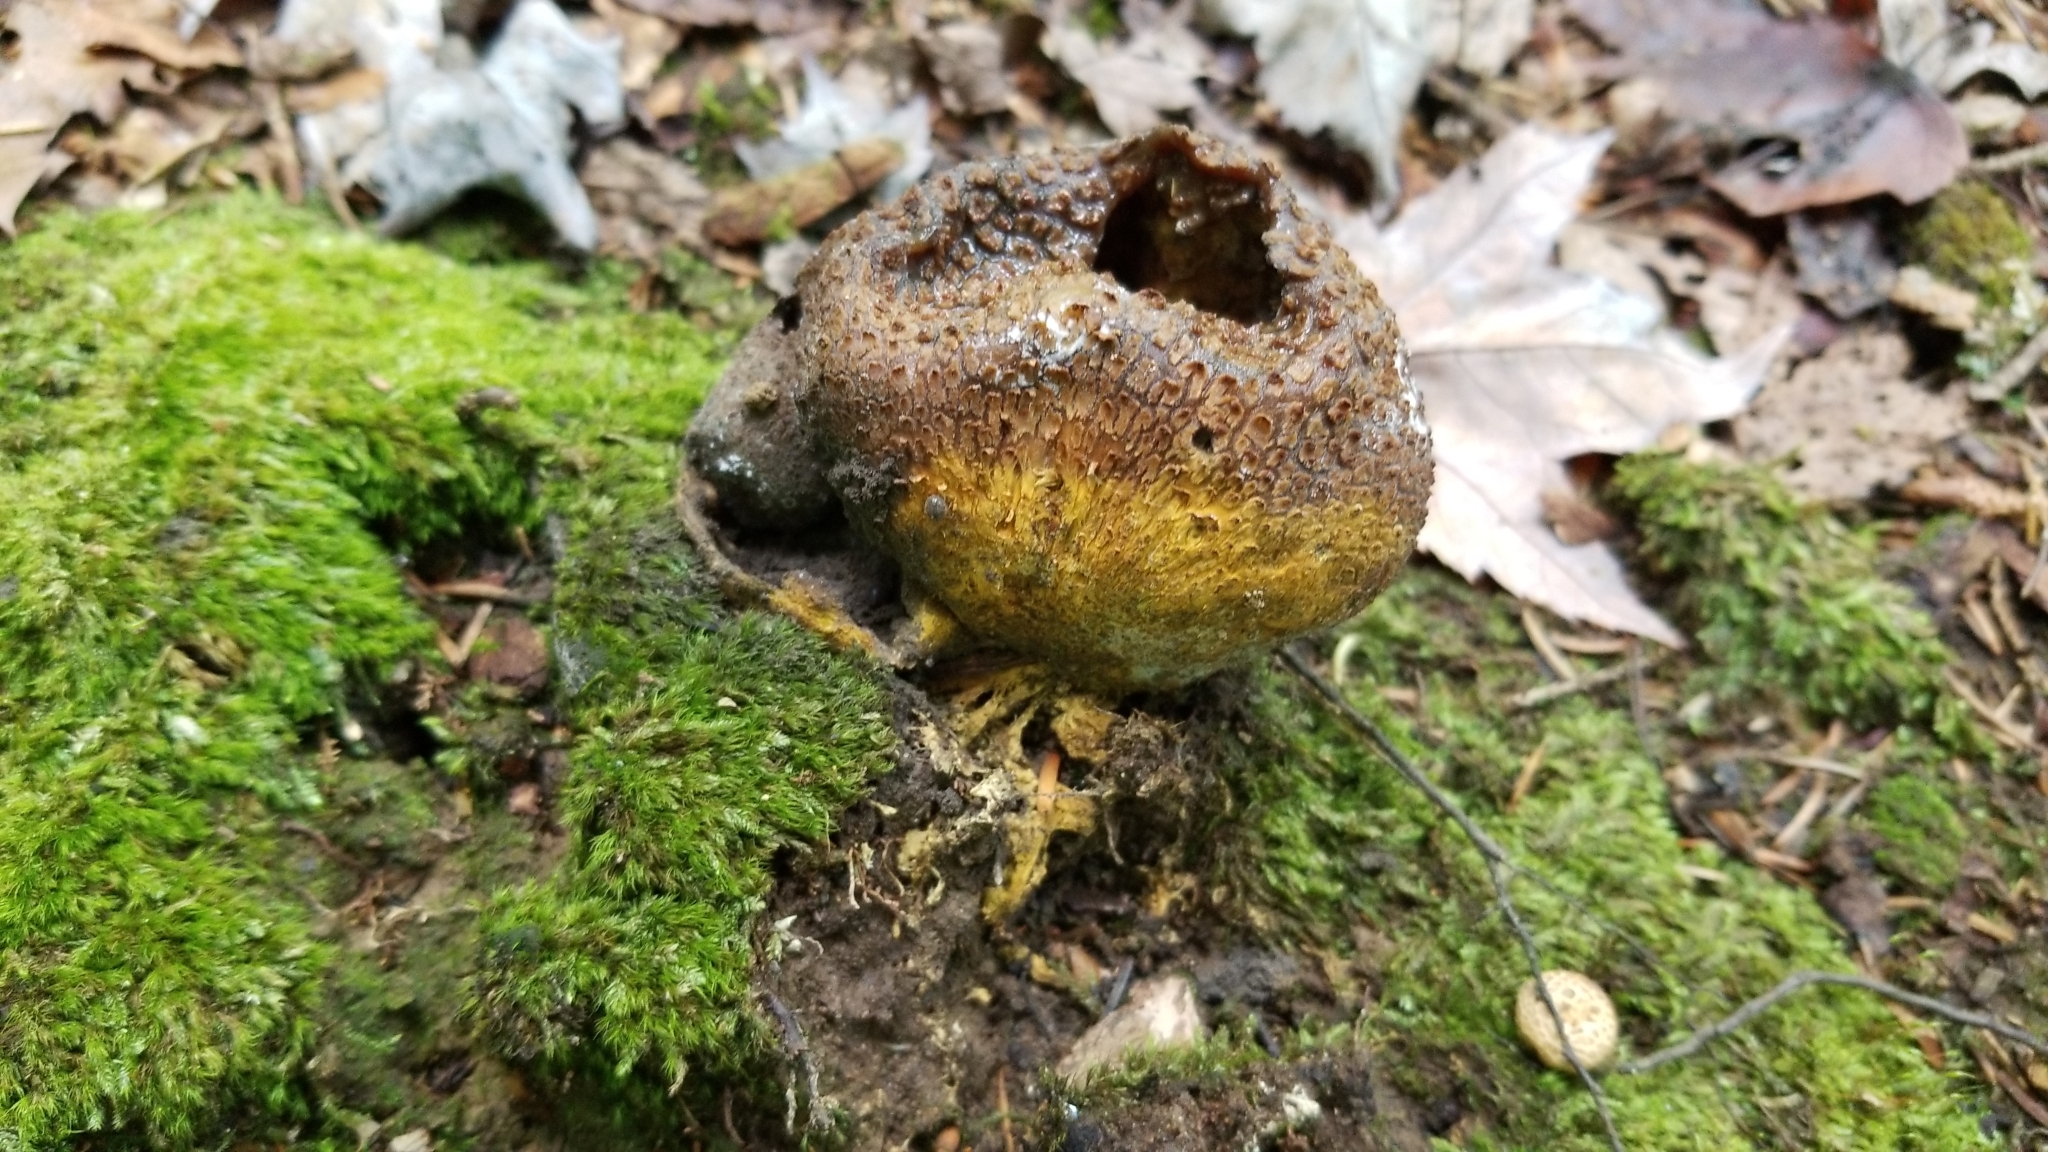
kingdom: Fungi
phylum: Basidiomycota
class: Agaricomycetes
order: Boletales
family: Sclerodermataceae
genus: Scleroderma
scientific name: Scleroderma citrinum
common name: Common earthball
